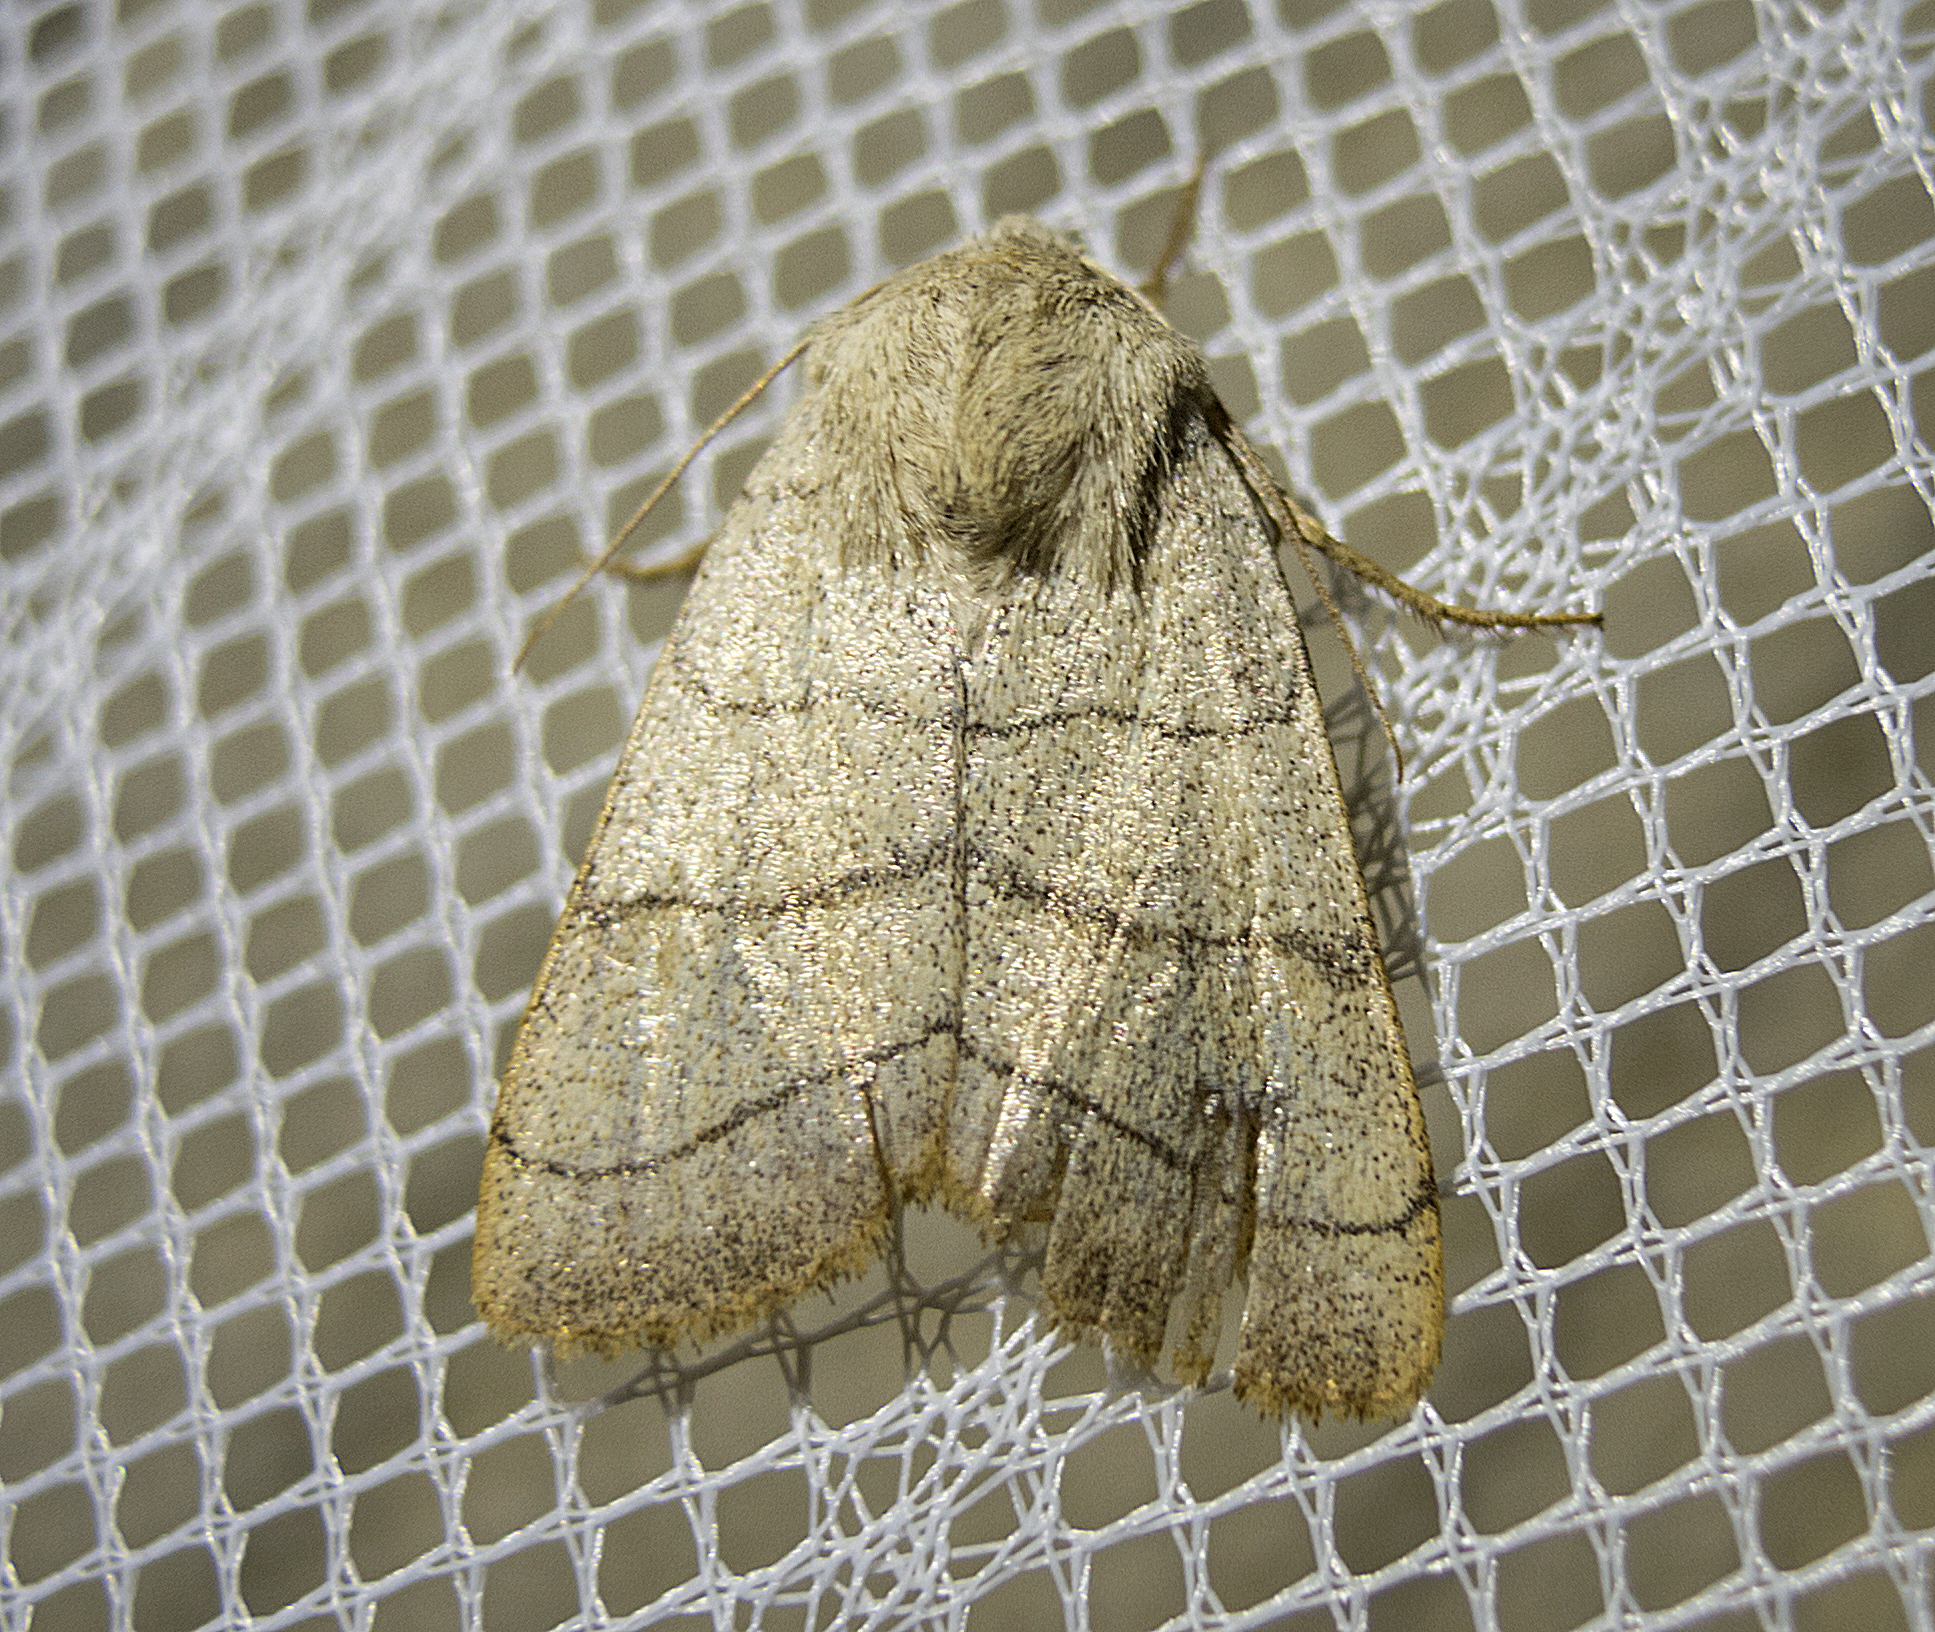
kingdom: Animalia
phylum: Arthropoda
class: Insecta
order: Lepidoptera
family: Noctuidae
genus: Charanyca
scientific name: Charanyca trigrammica
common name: Treble lines
